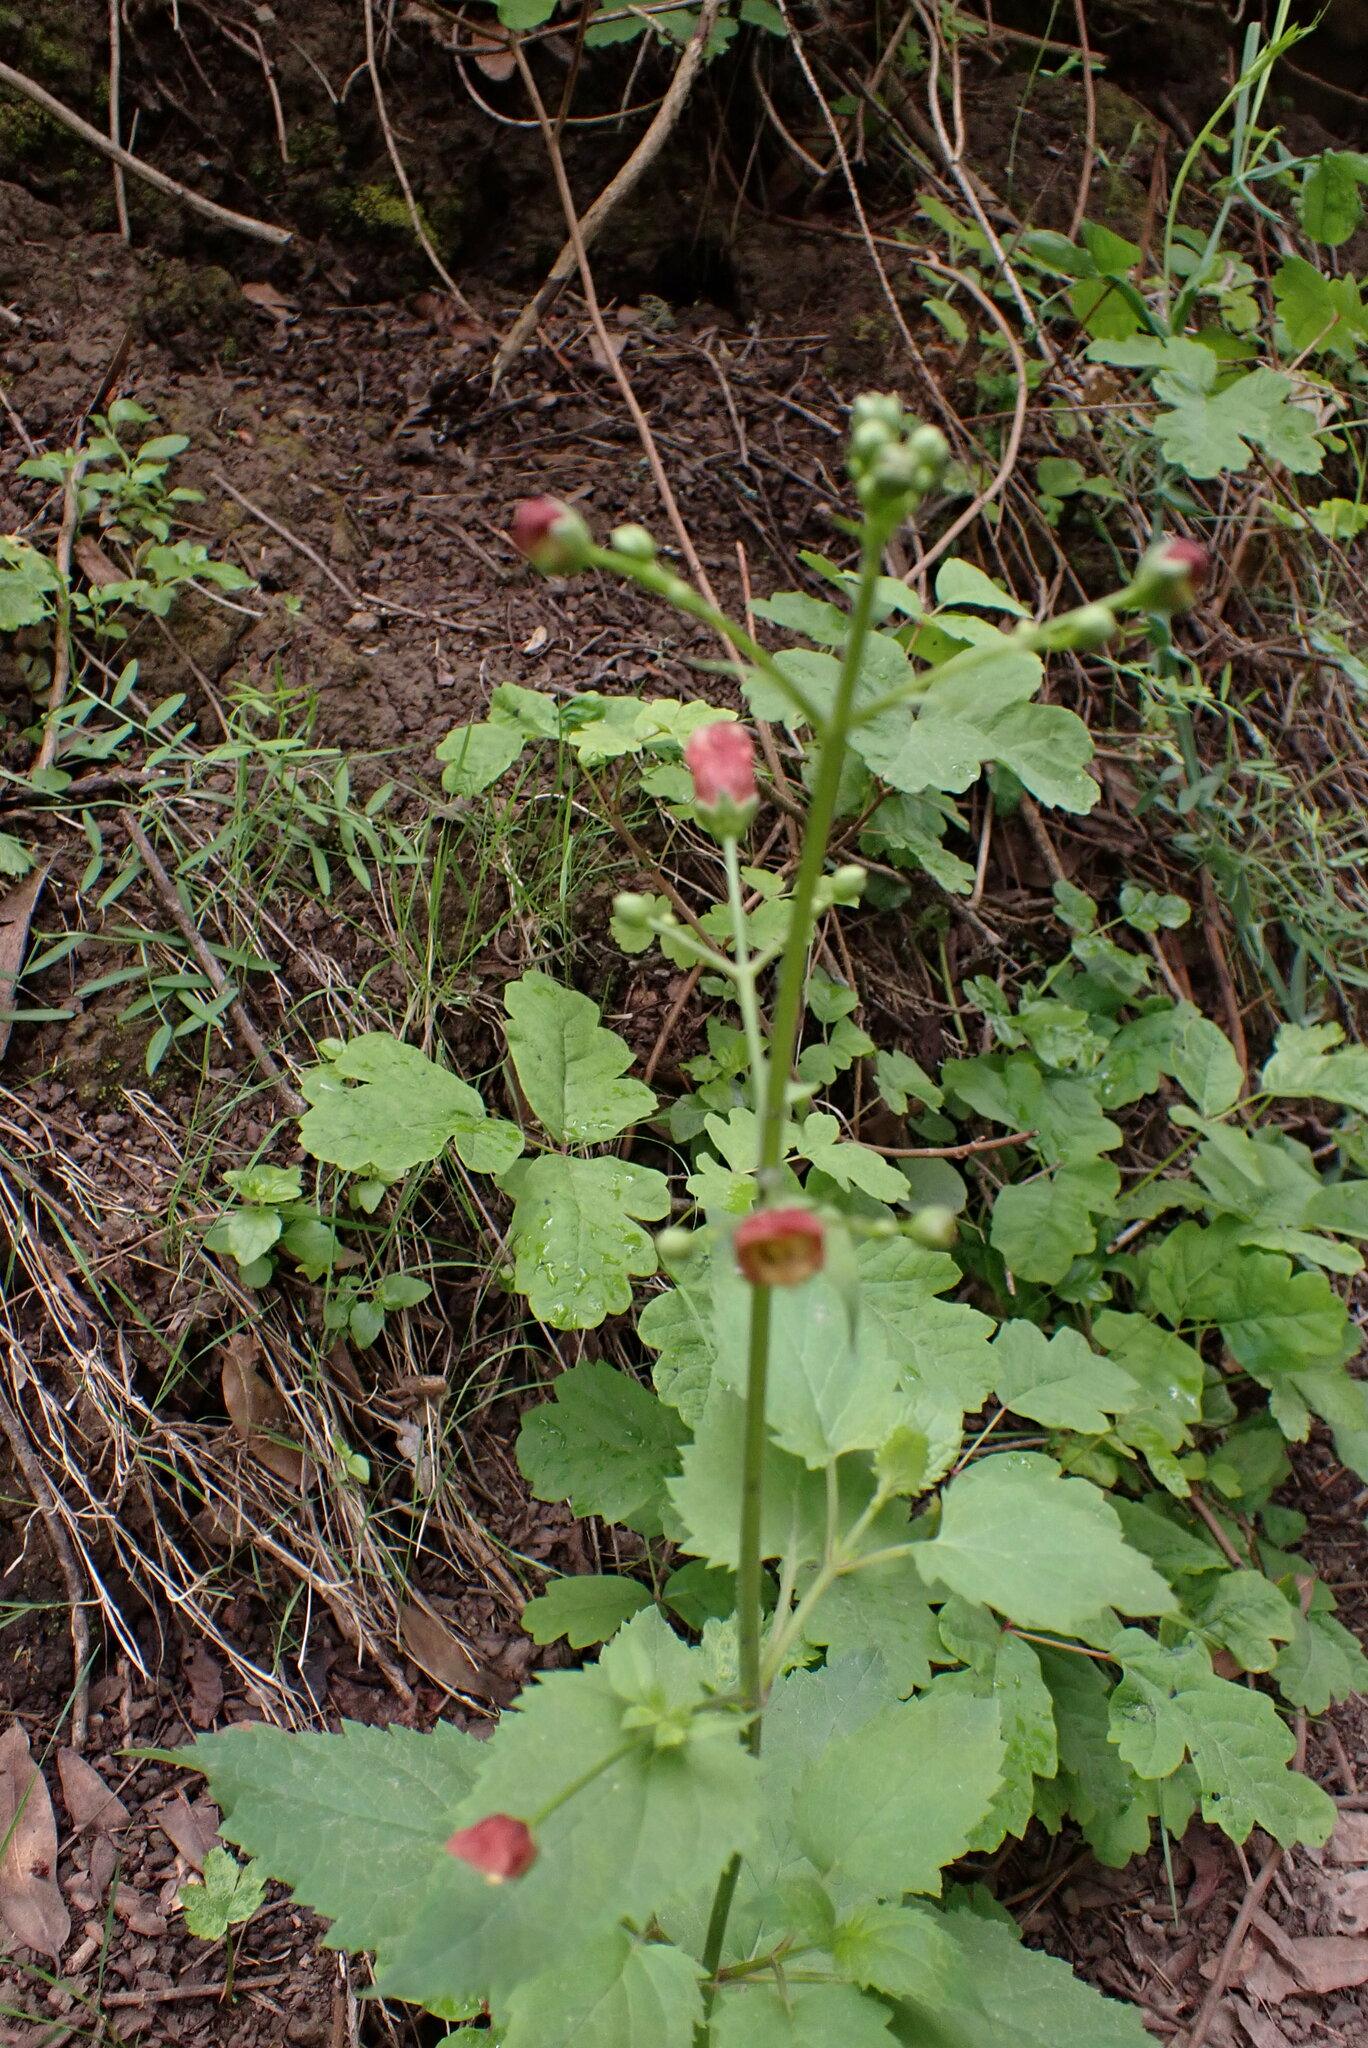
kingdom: Plantae
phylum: Tracheophyta
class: Magnoliopsida
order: Lamiales
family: Scrophulariaceae
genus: Scrophularia
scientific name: Scrophularia californica
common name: California figwort
